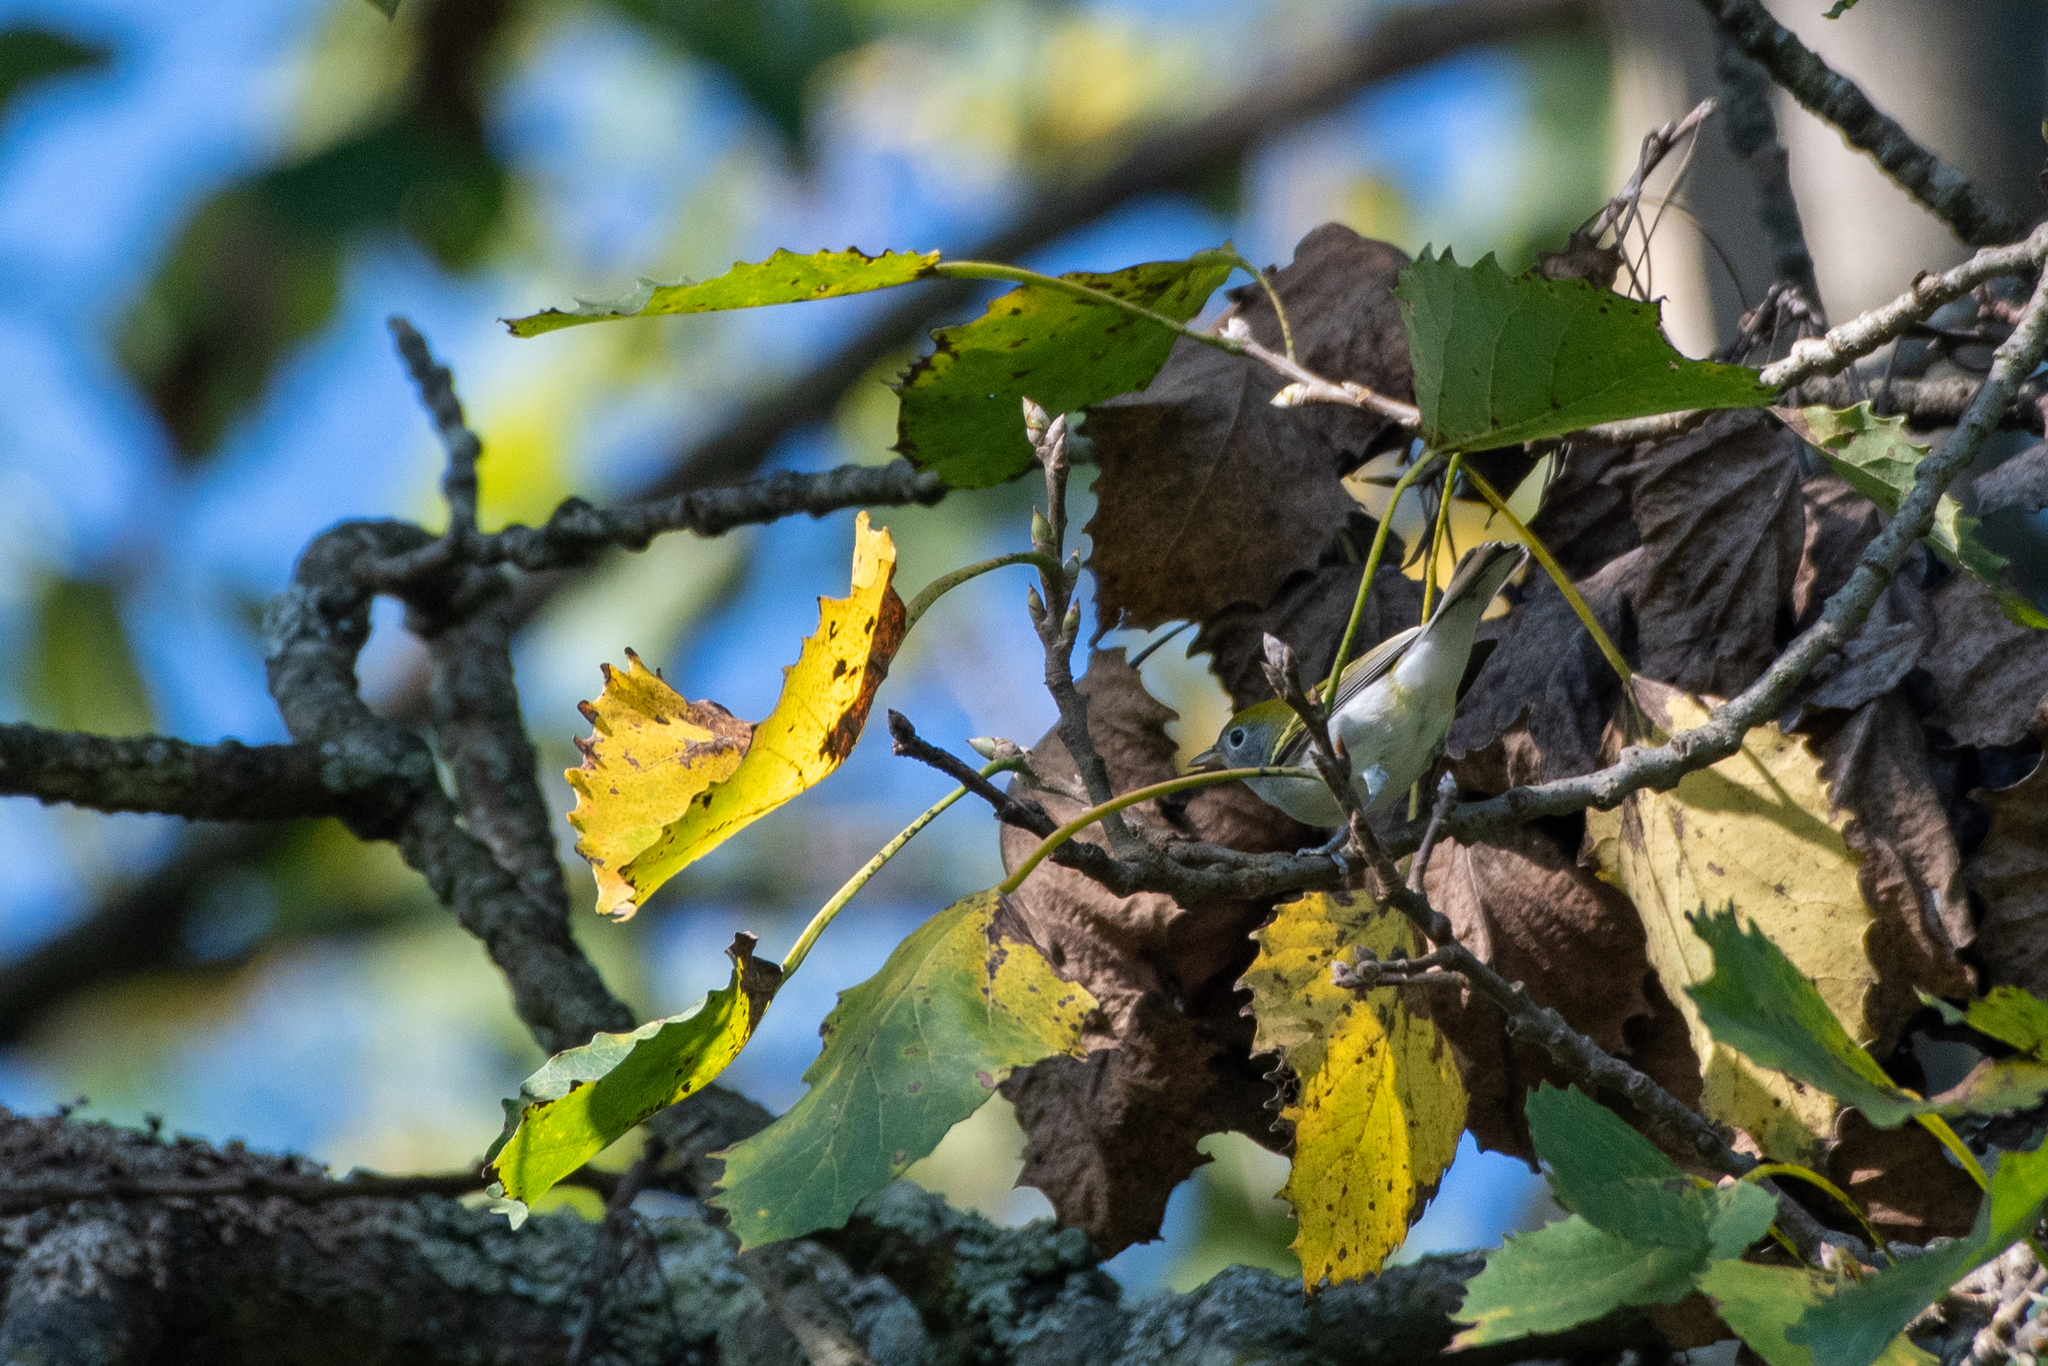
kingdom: Animalia
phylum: Chordata
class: Aves
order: Passeriformes
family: Parulidae
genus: Setophaga
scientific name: Setophaga pensylvanica
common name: Chestnut-sided warbler
